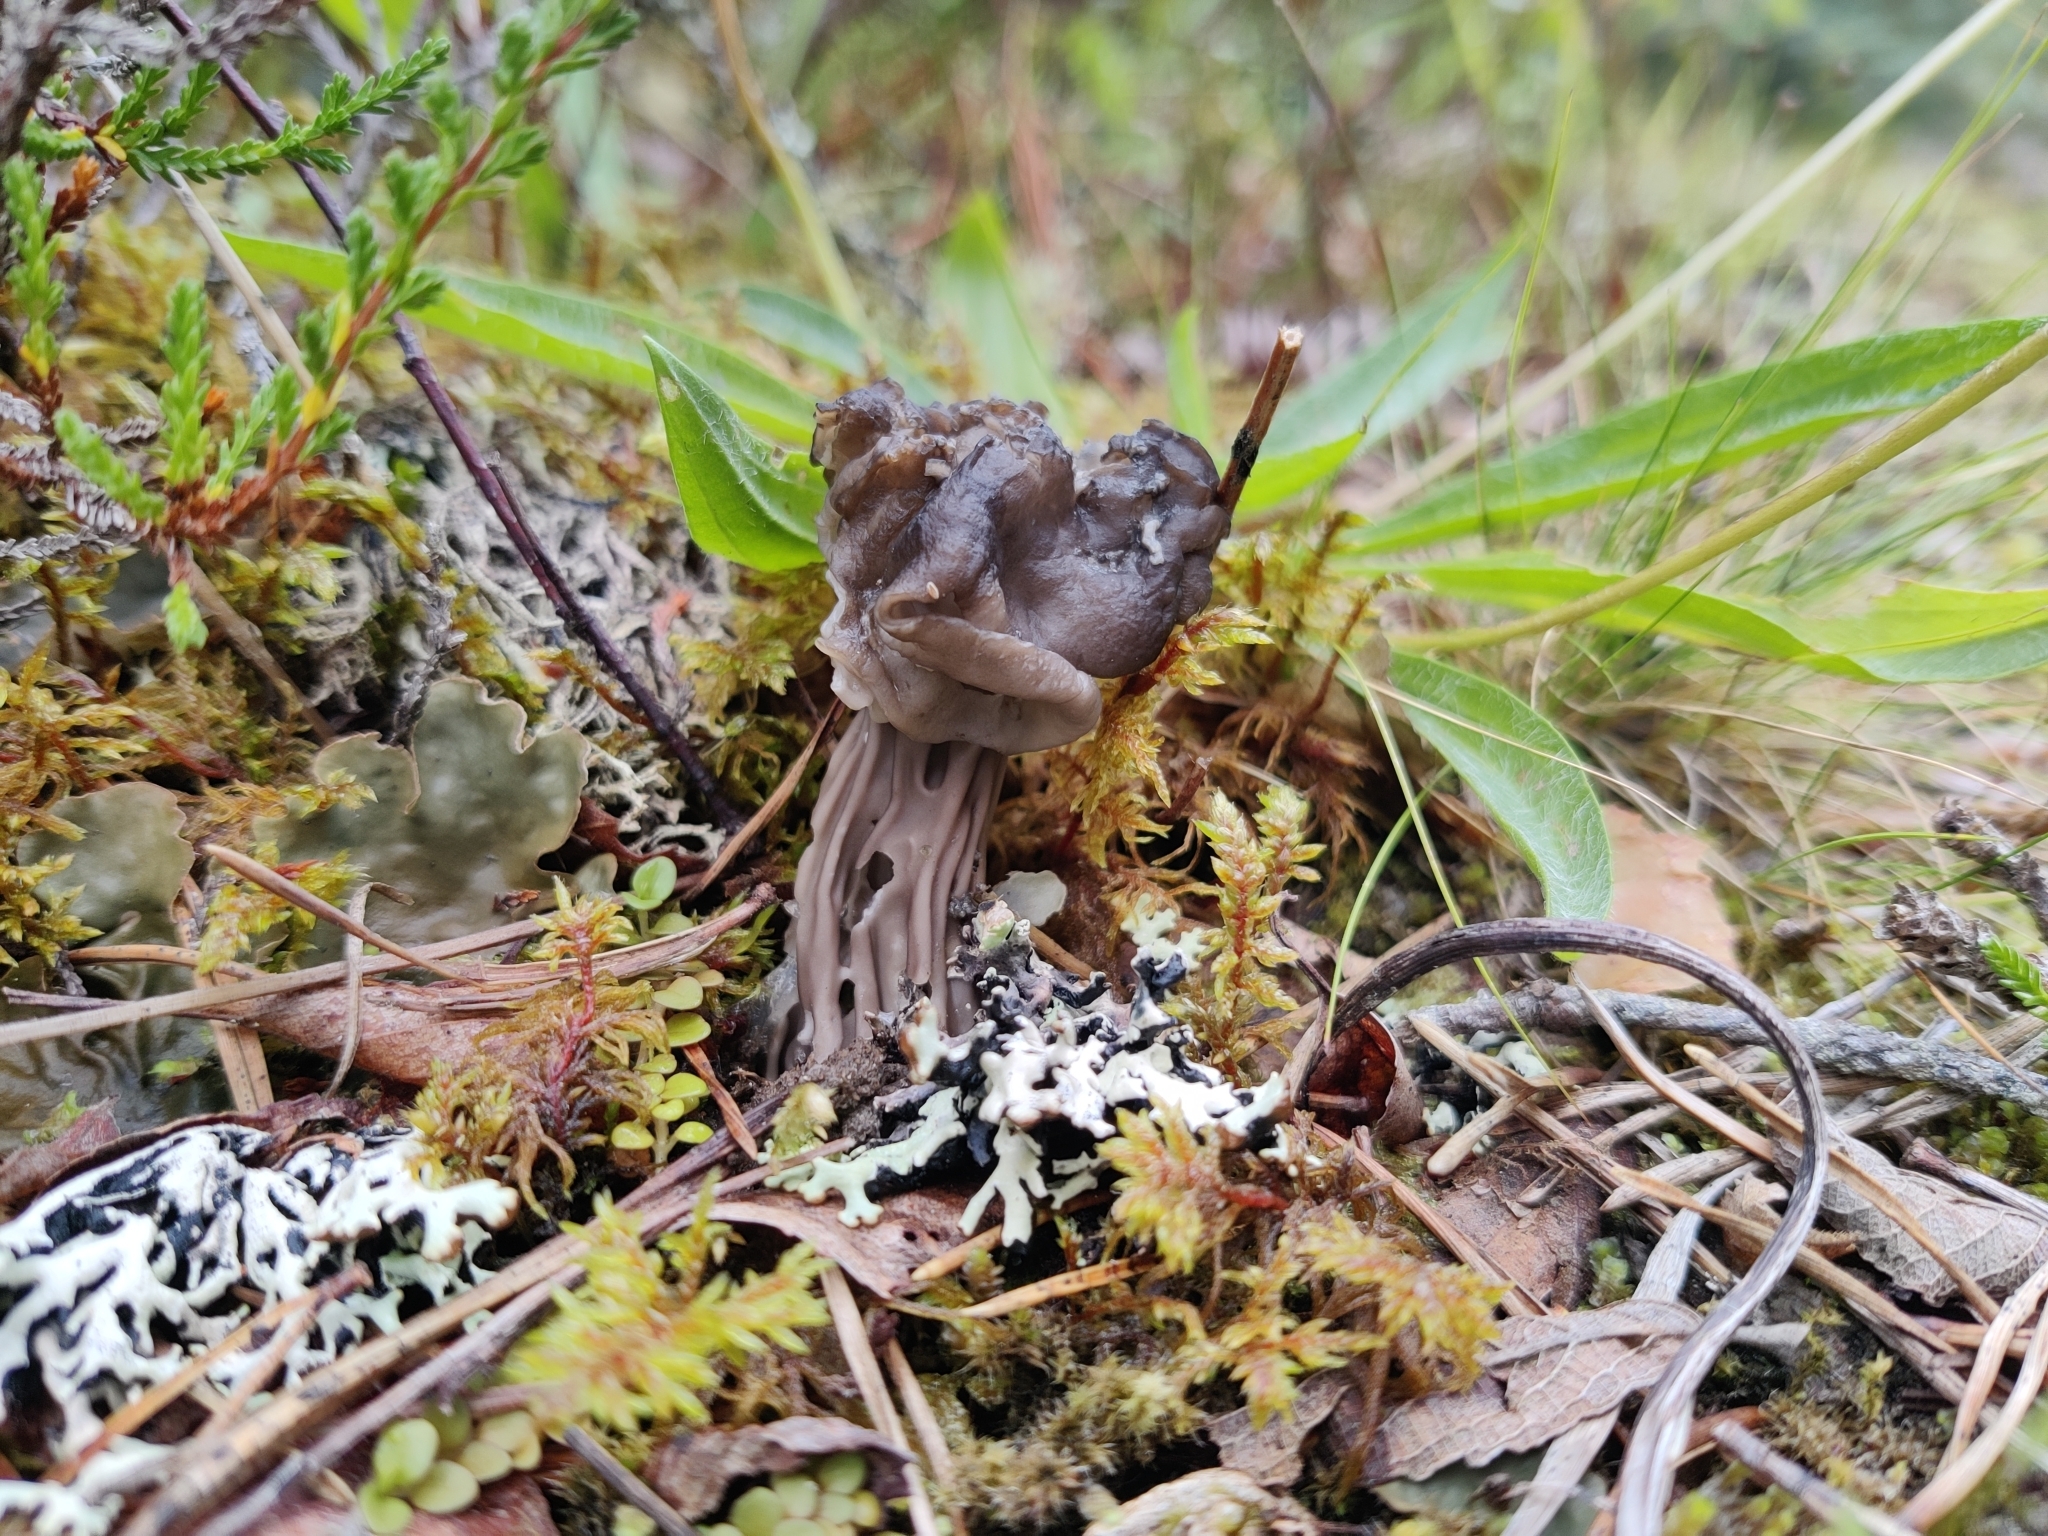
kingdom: Fungi
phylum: Ascomycota
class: Pezizomycetes
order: Pezizales
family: Helvellaceae
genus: Helvella
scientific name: Helvella lacunosa
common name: Elfin saddle
